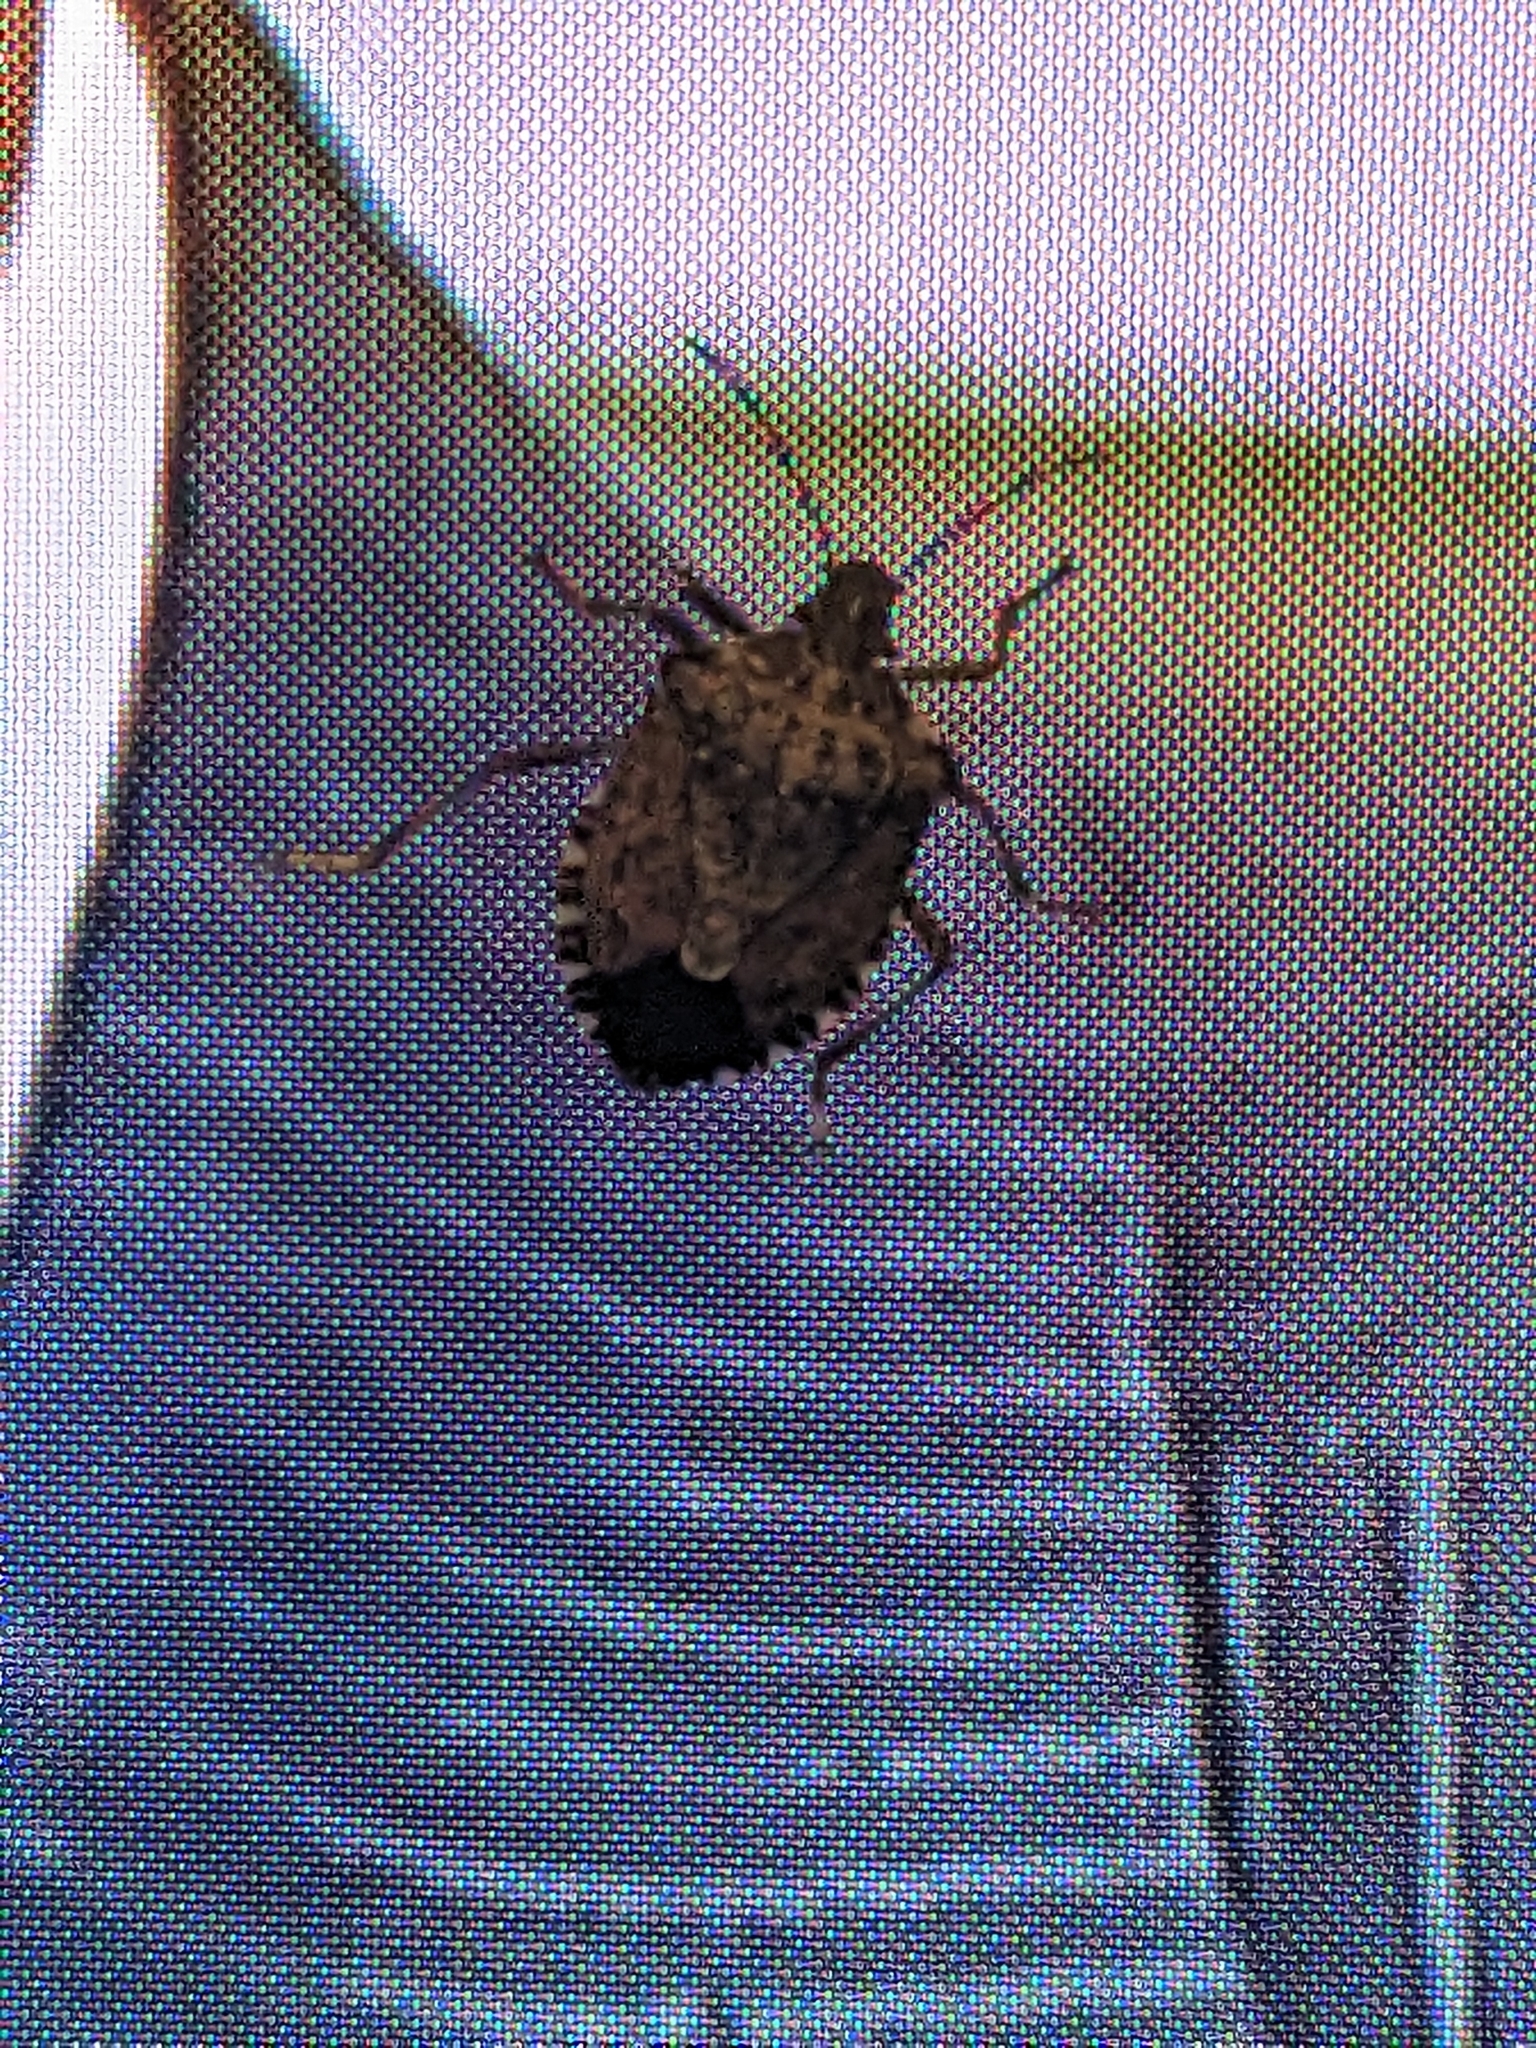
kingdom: Animalia
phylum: Arthropoda
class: Insecta
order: Hemiptera
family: Pentatomidae
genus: Halyomorpha
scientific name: Halyomorpha halys
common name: Brown marmorated stink bug
